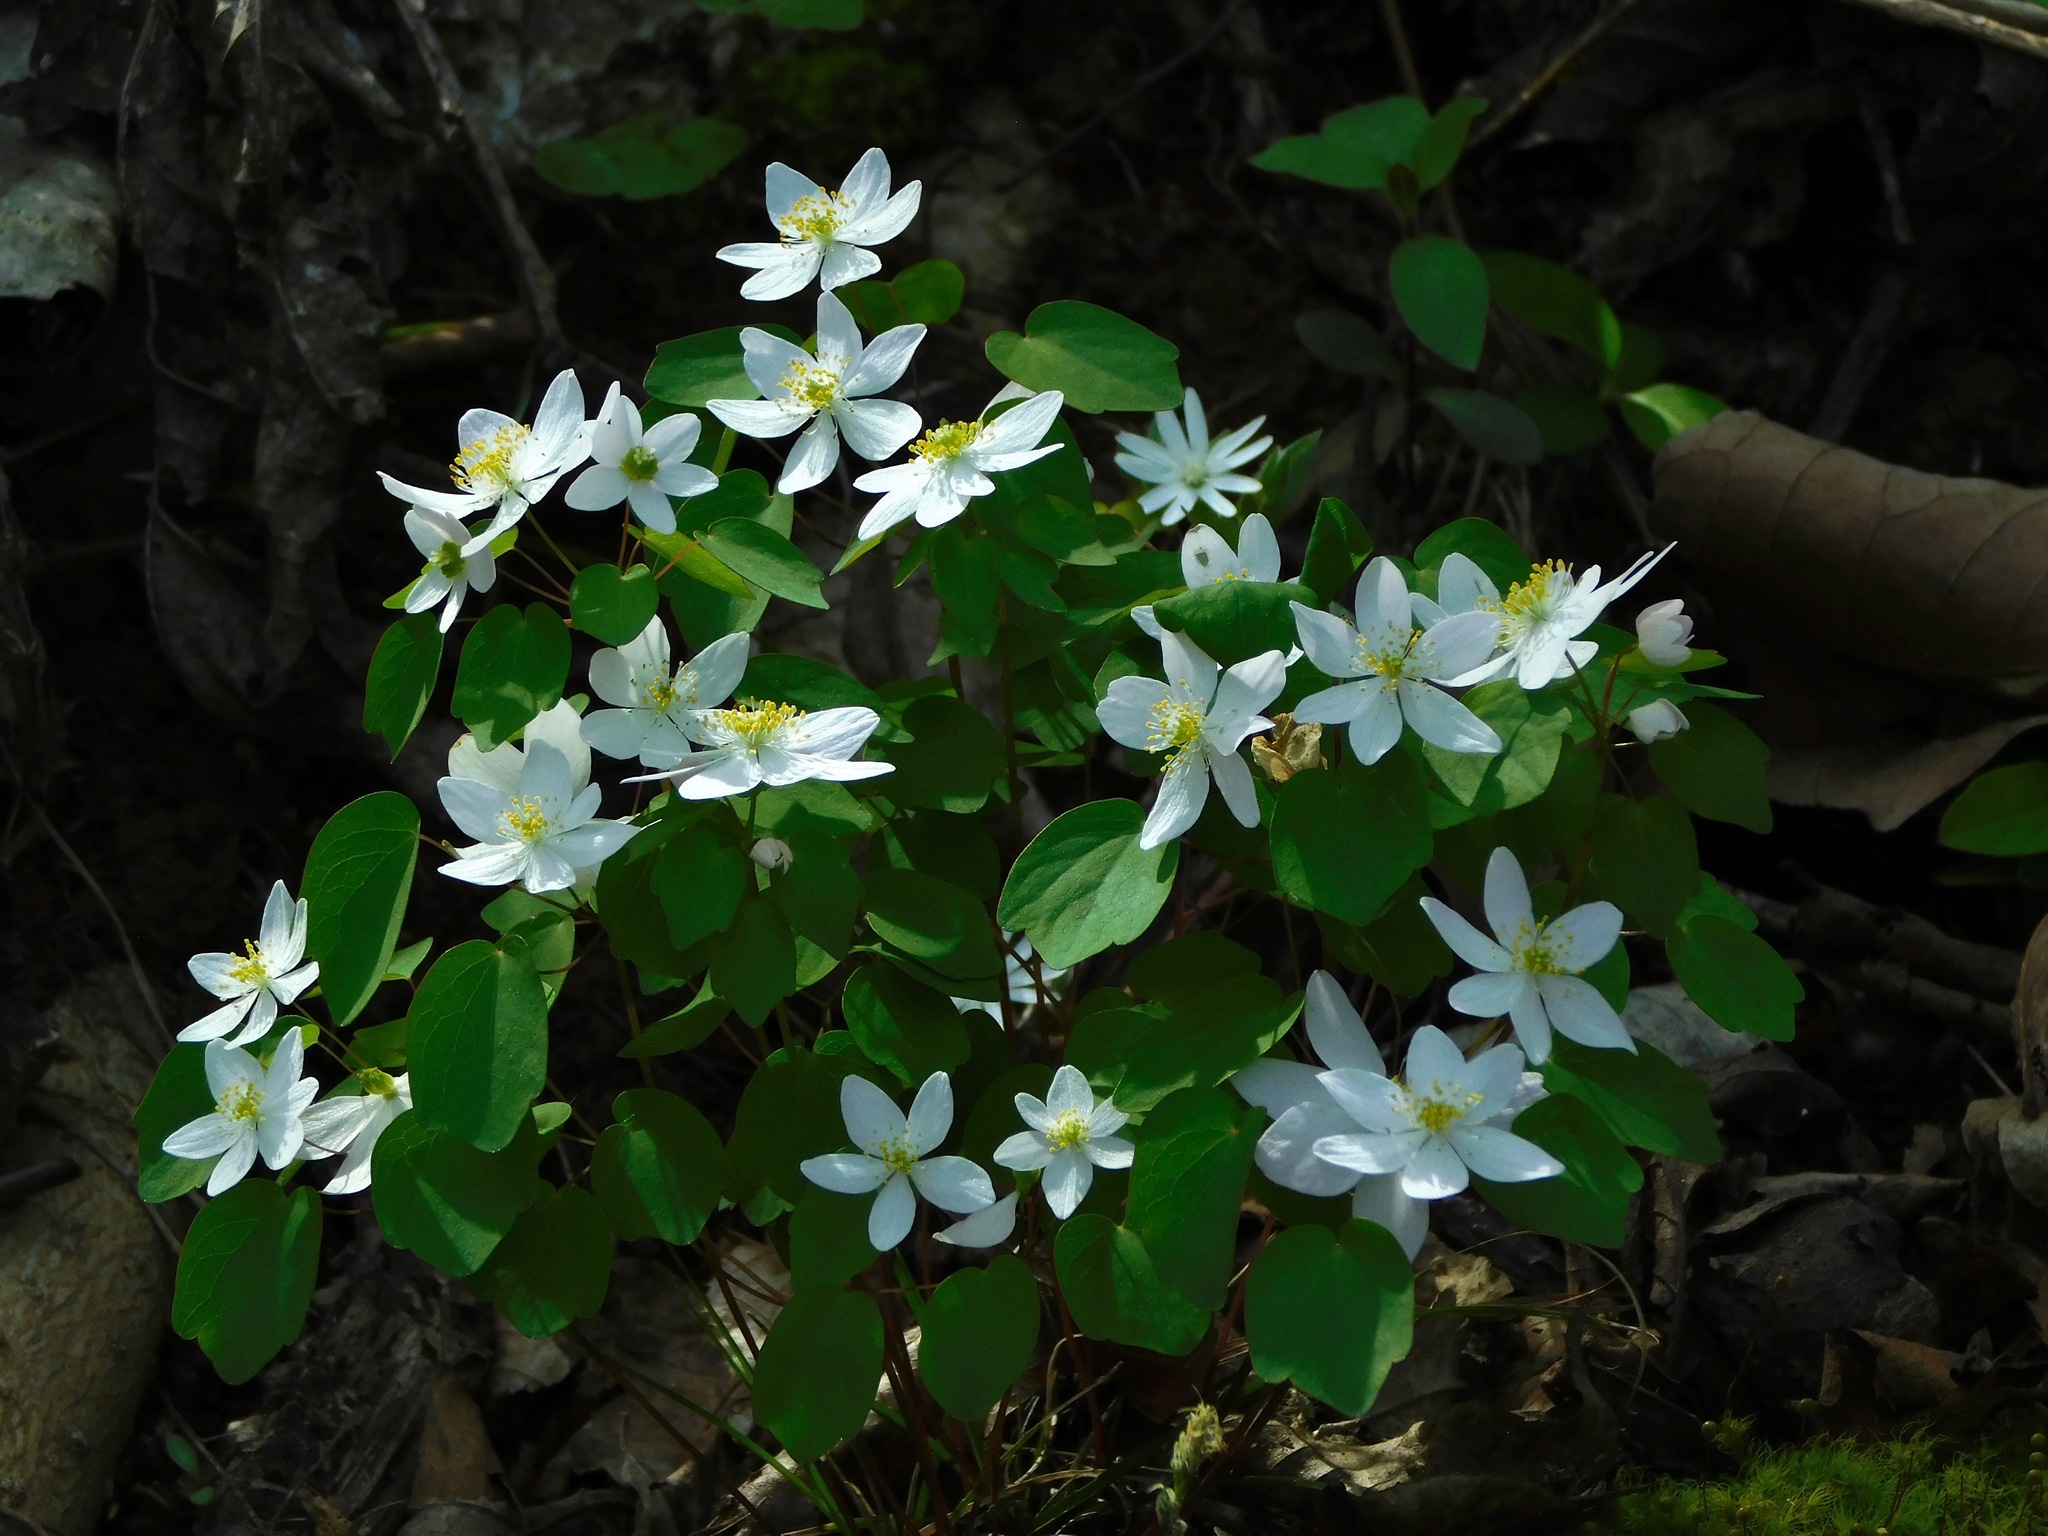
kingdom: Plantae
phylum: Tracheophyta
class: Magnoliopsida
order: Ranunculales
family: Ranunculaceae
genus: Thalictrum
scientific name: Thalictrum thalictroides
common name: Rue-anemone
